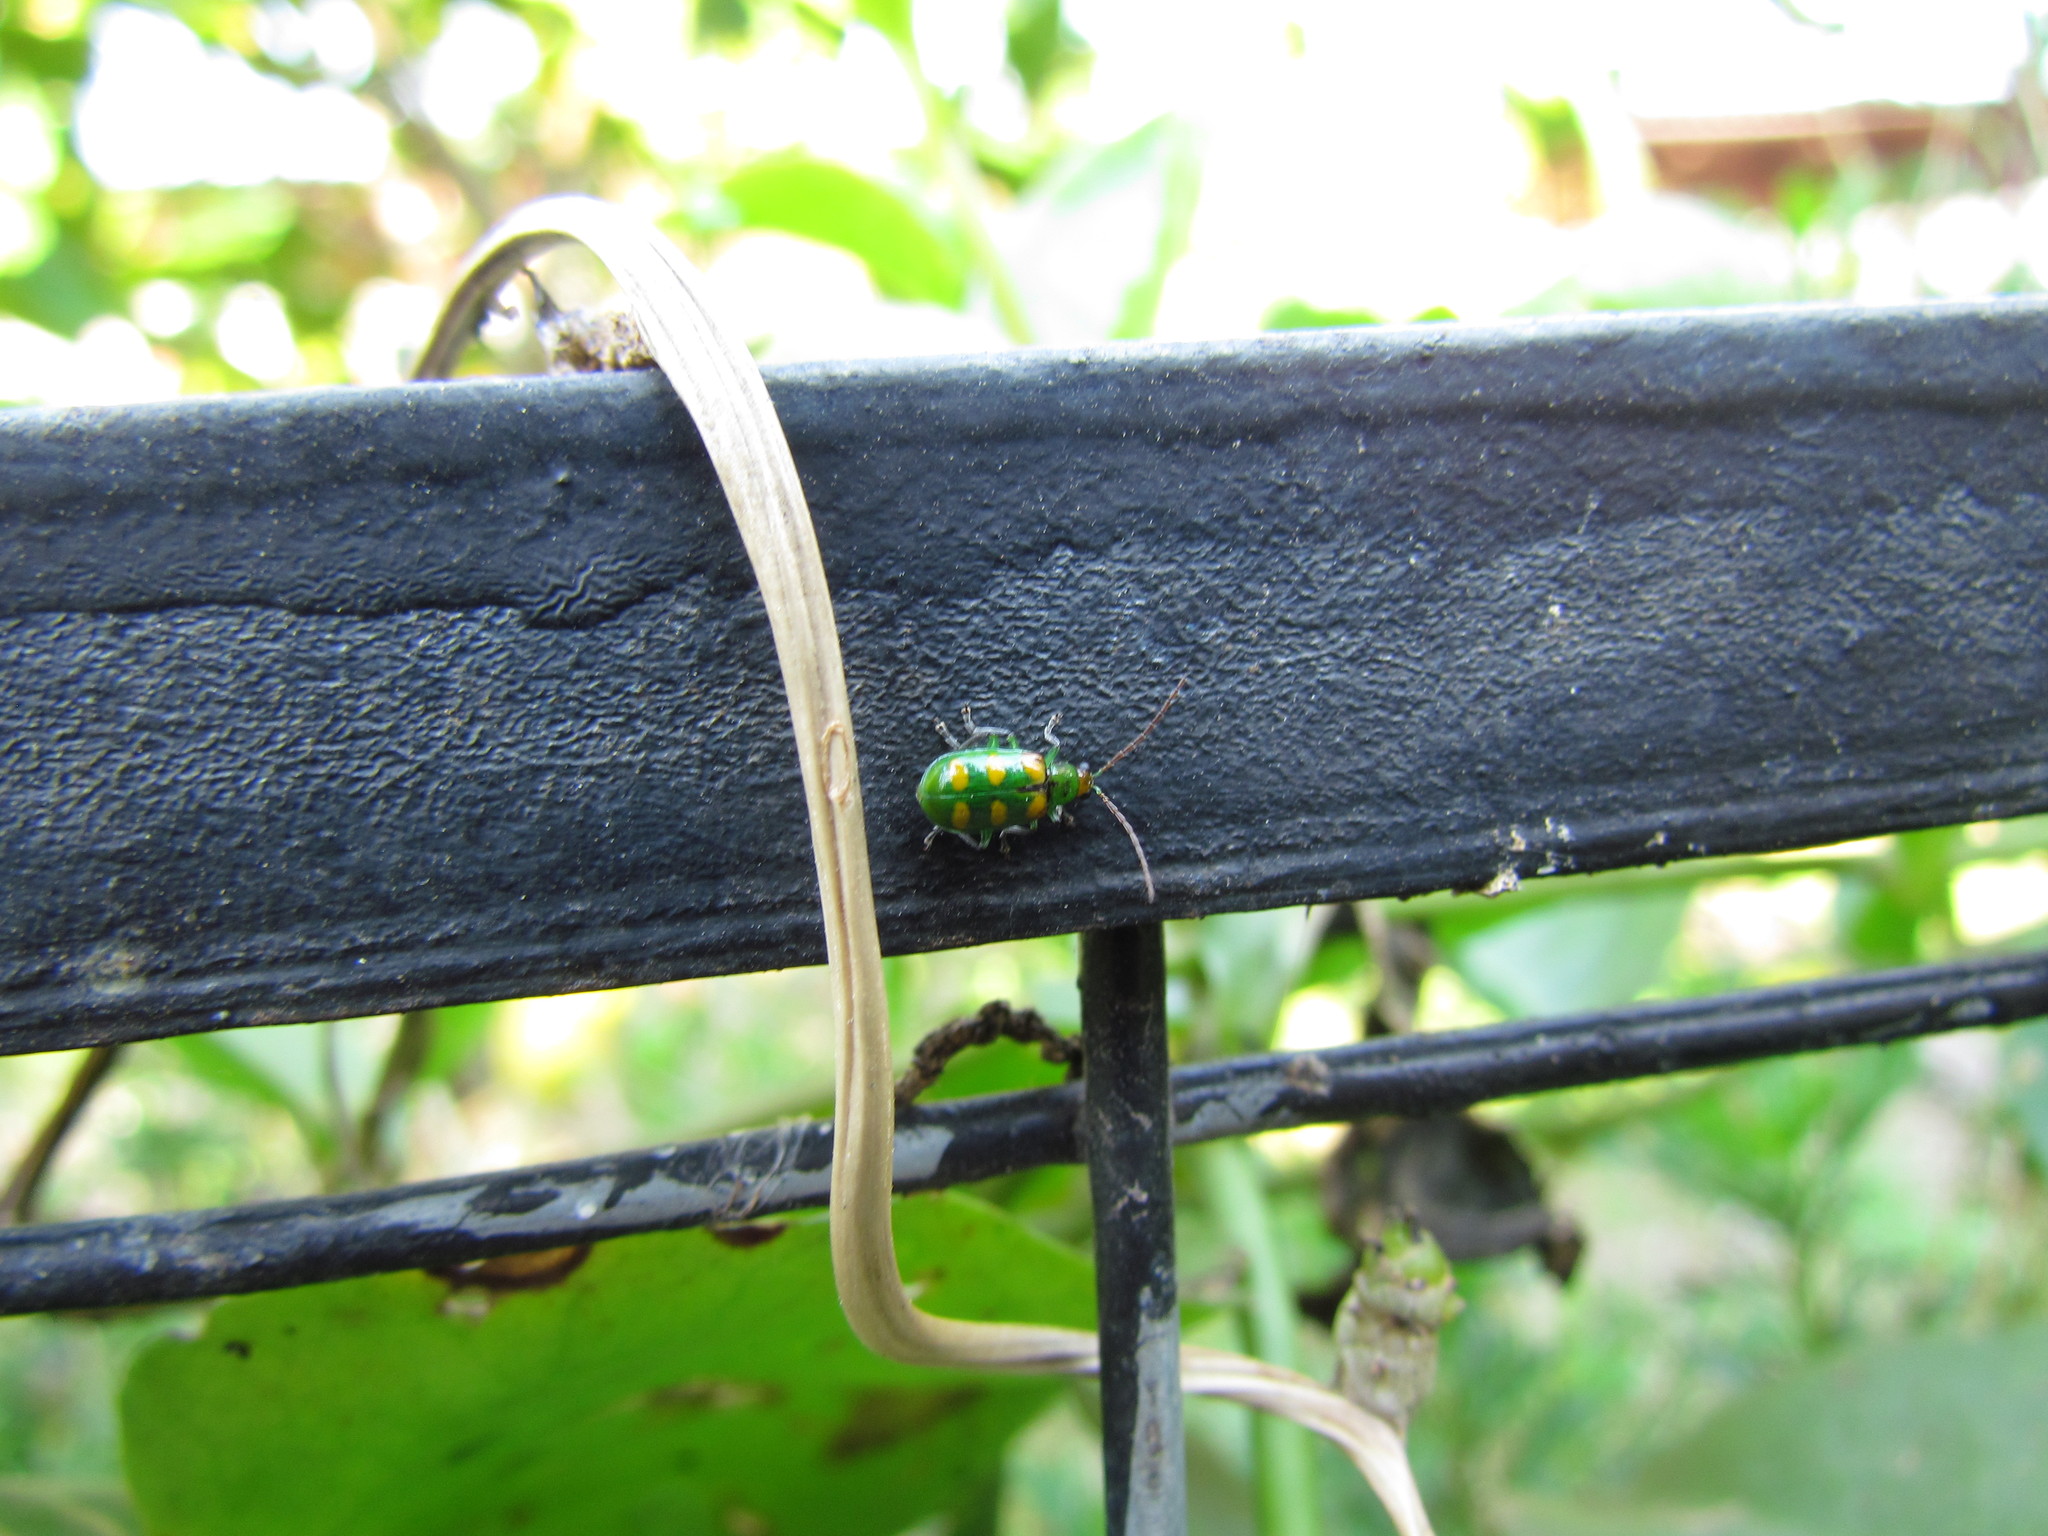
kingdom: Animalia
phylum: Arthropoda
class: Insecta
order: Coleoptera
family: Chrysomelidae
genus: Diabrotica
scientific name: Diabrotica speciosa
